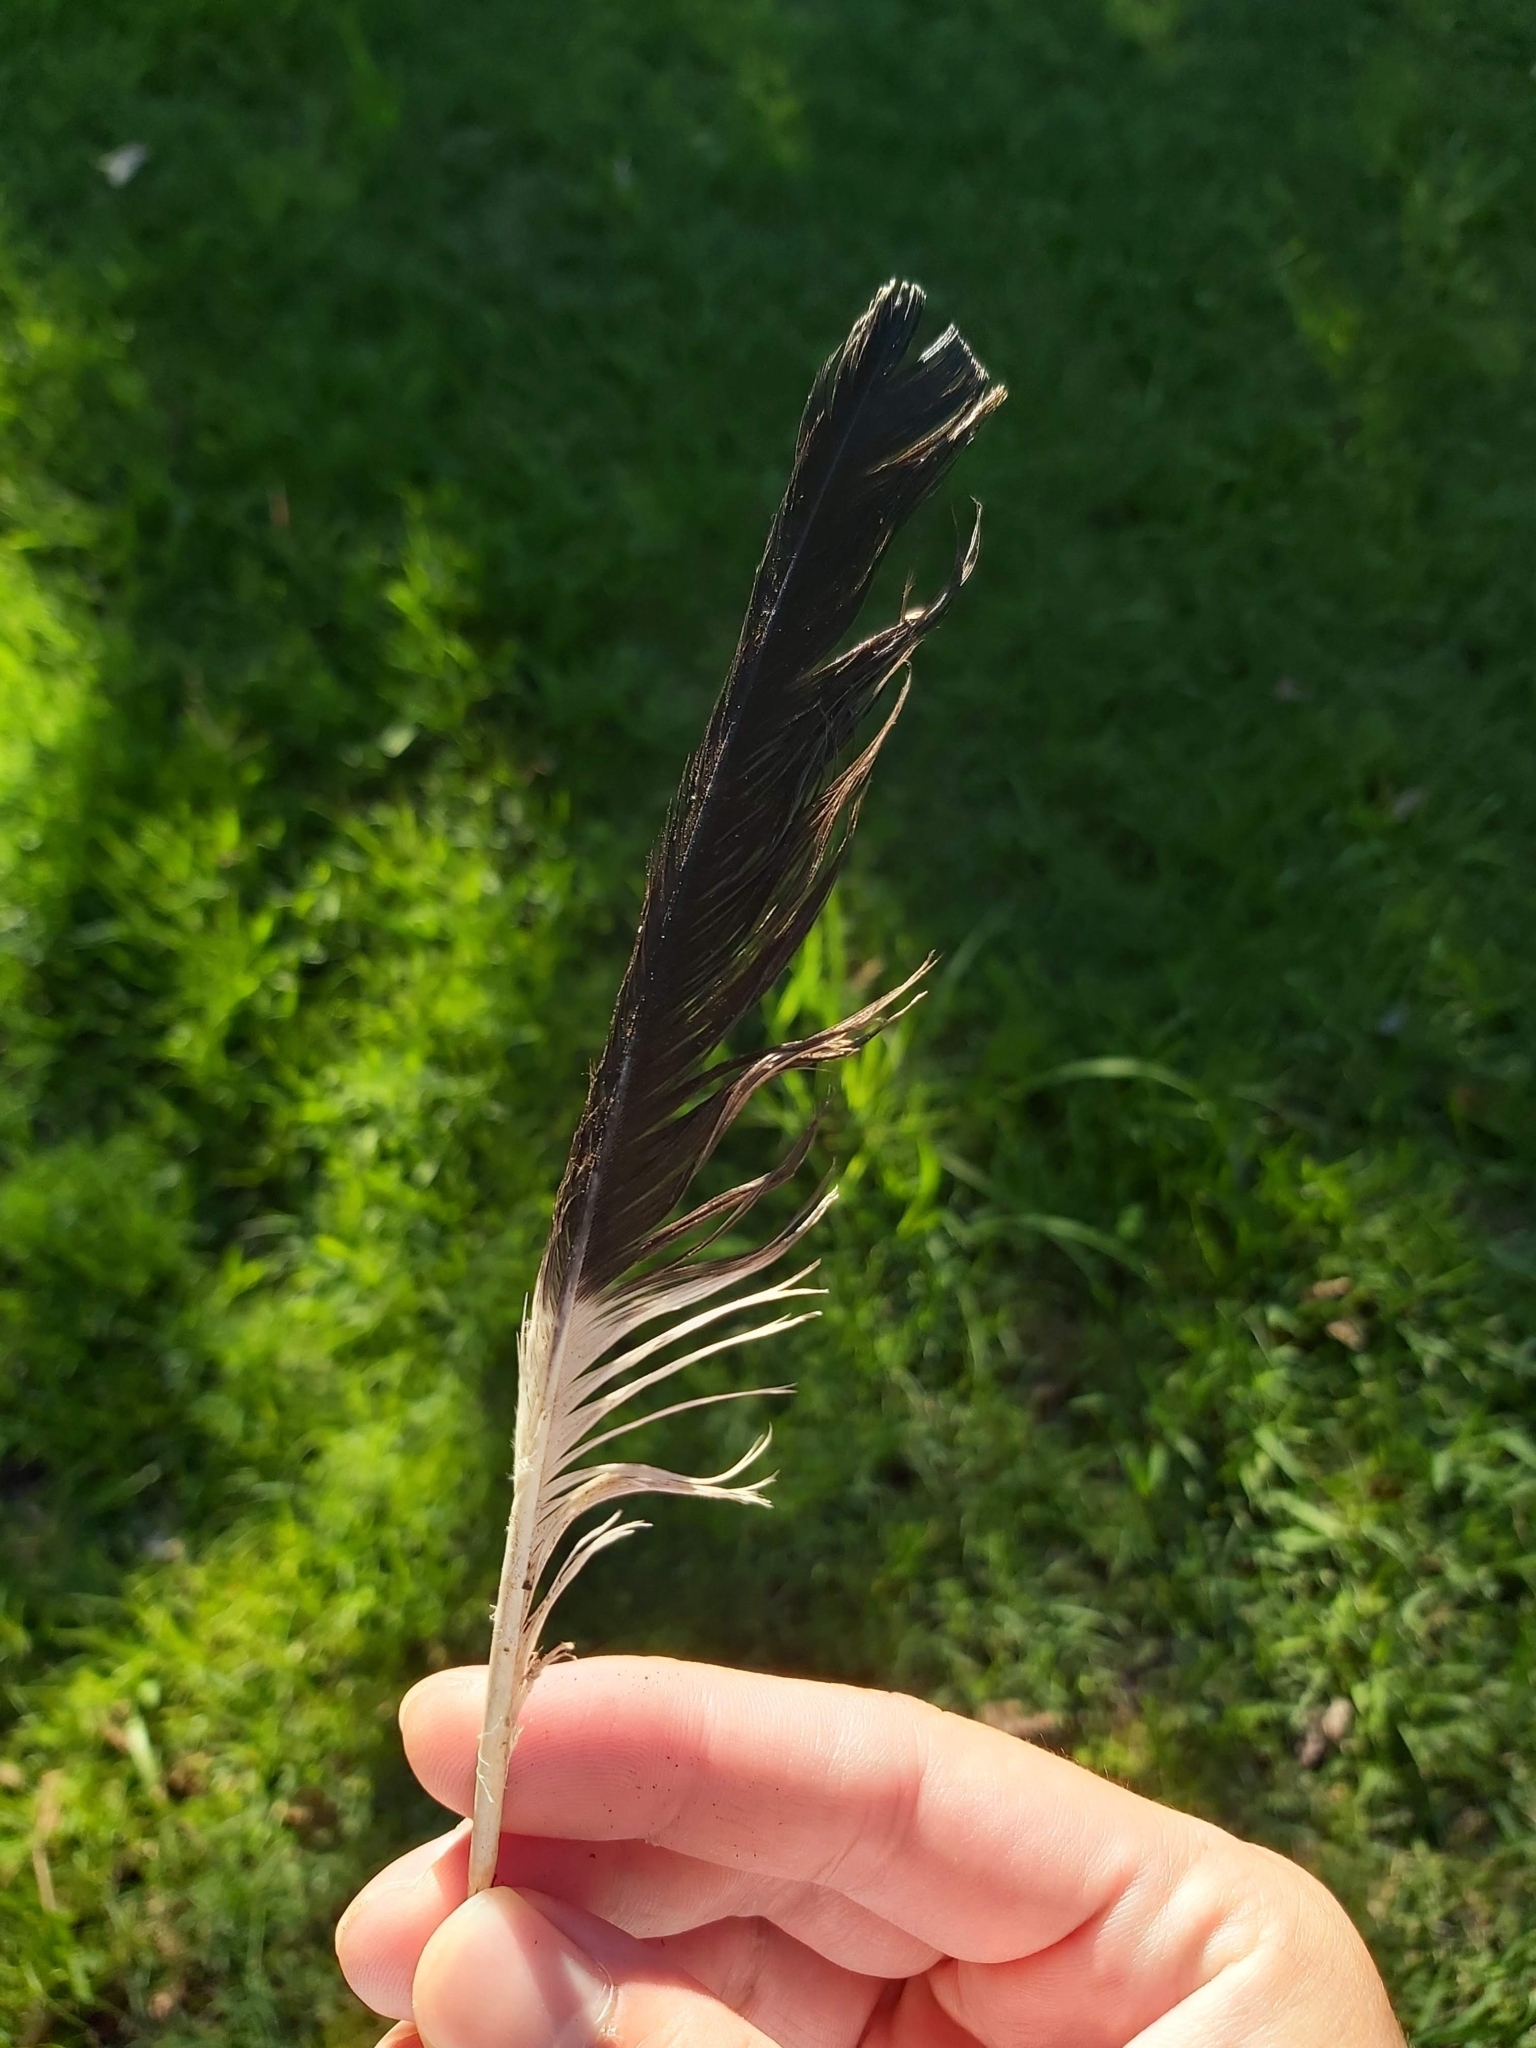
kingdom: Animalia
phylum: Chordata
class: Aves
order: Passeriformes
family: Cracticidae
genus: Strepera
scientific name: Strepera graculina
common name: Pied currawong
